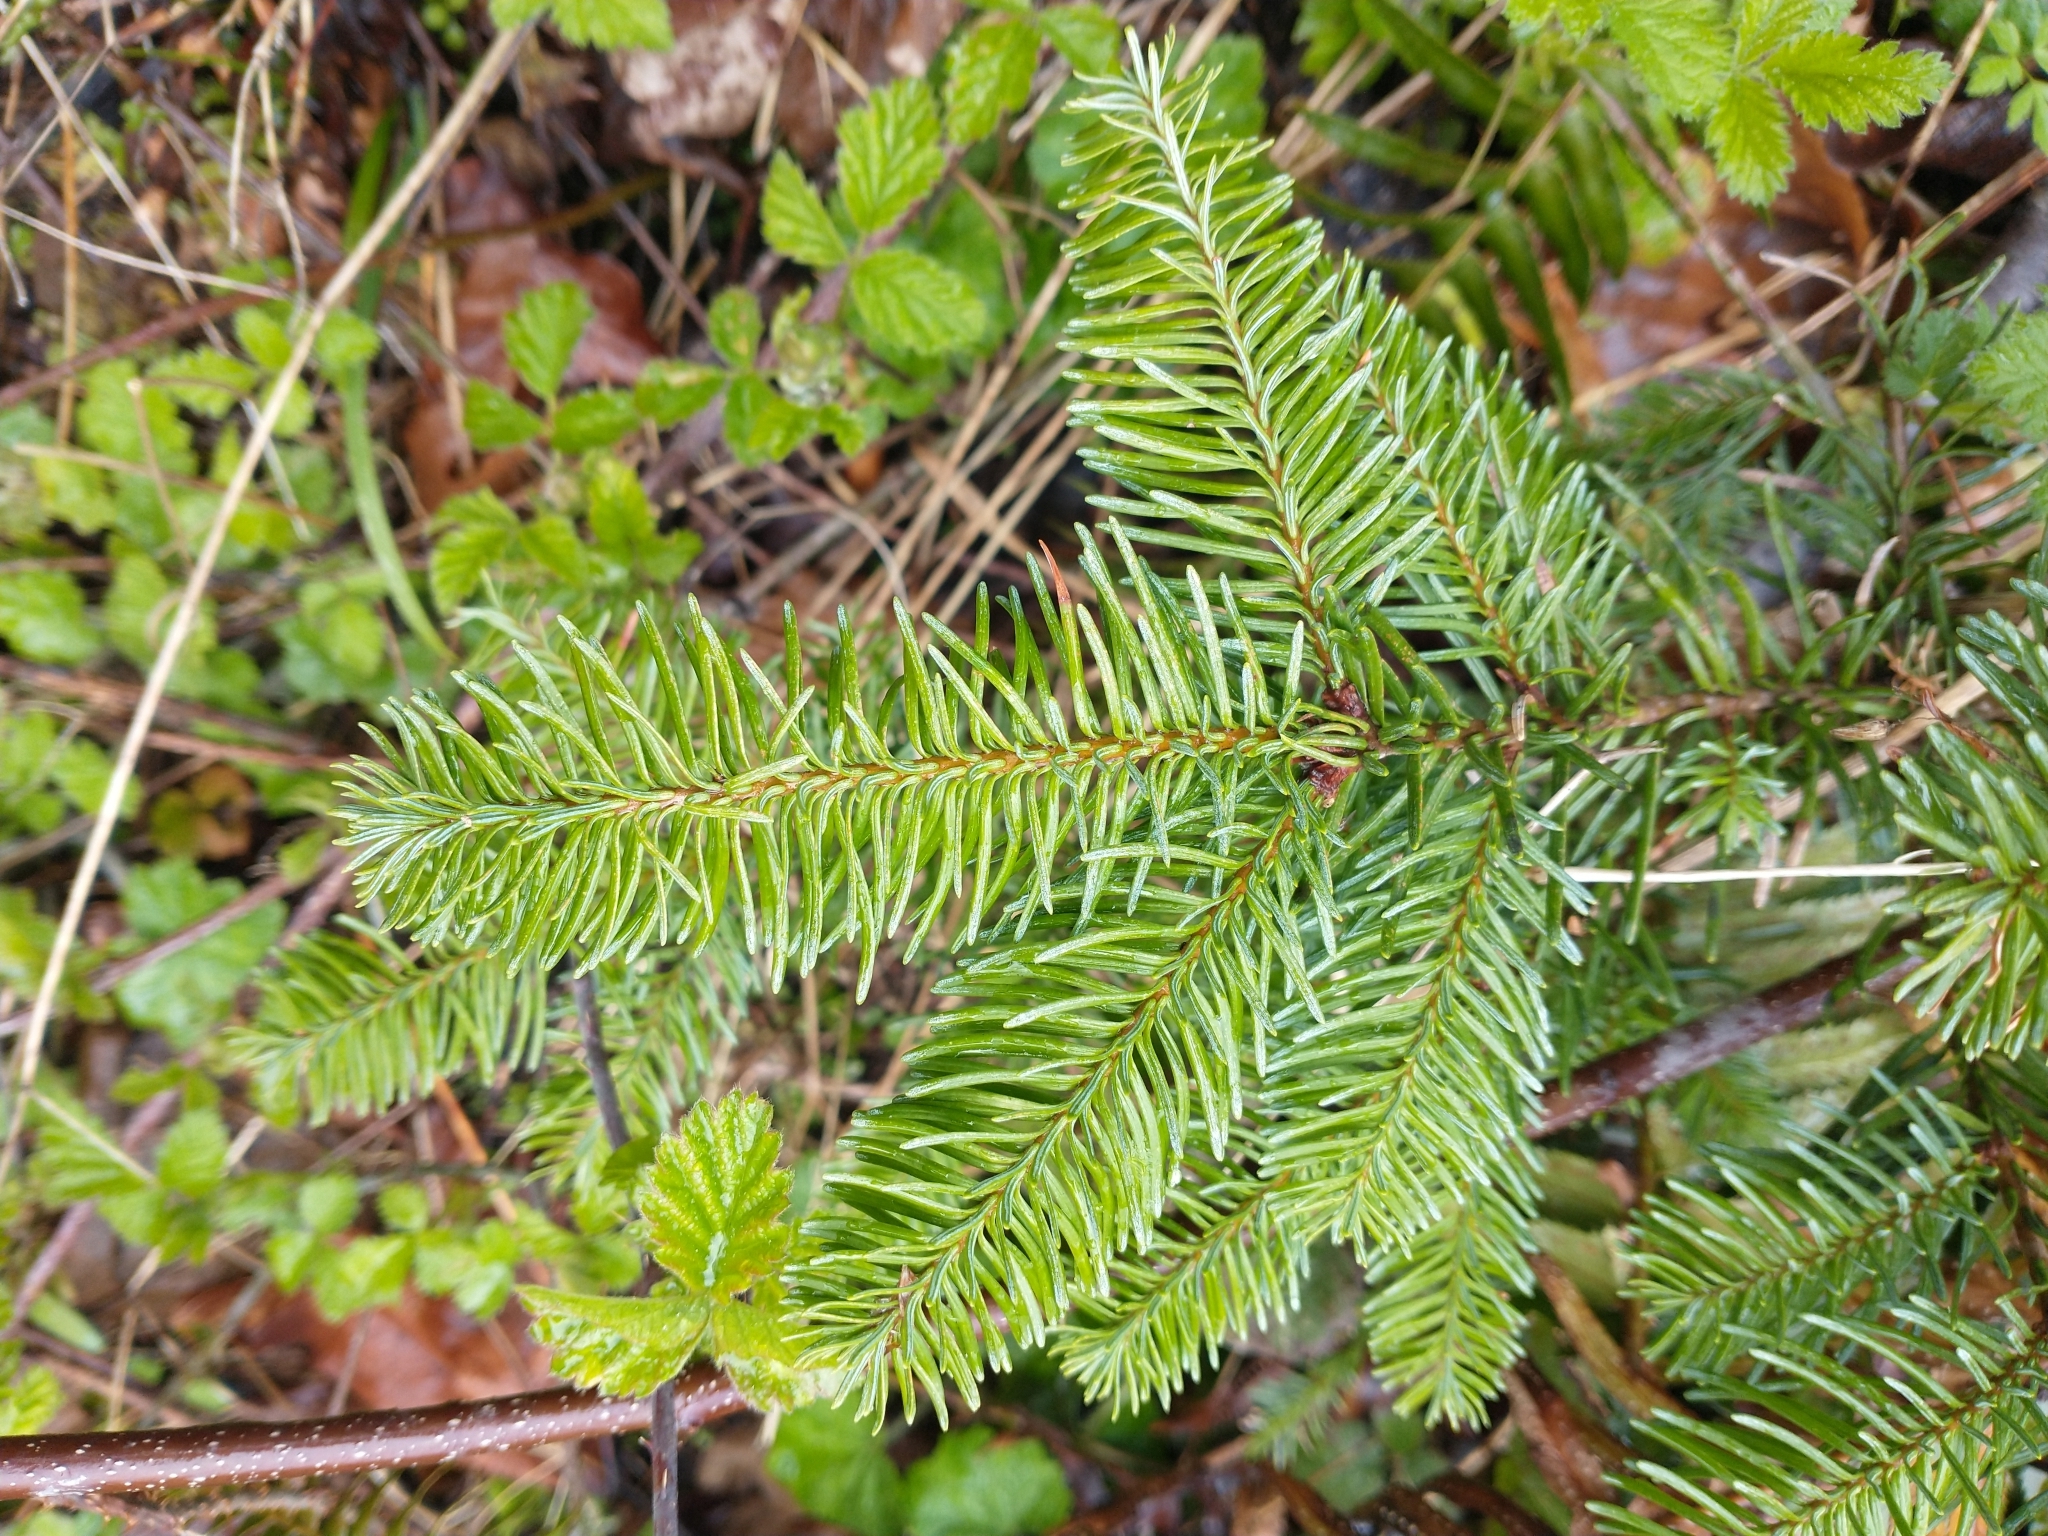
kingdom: Plantae
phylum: Tracheophyta
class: Pinopsida
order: Pinales
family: Pinaceae
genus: Abies
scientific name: Abies procera
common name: Noble fir
